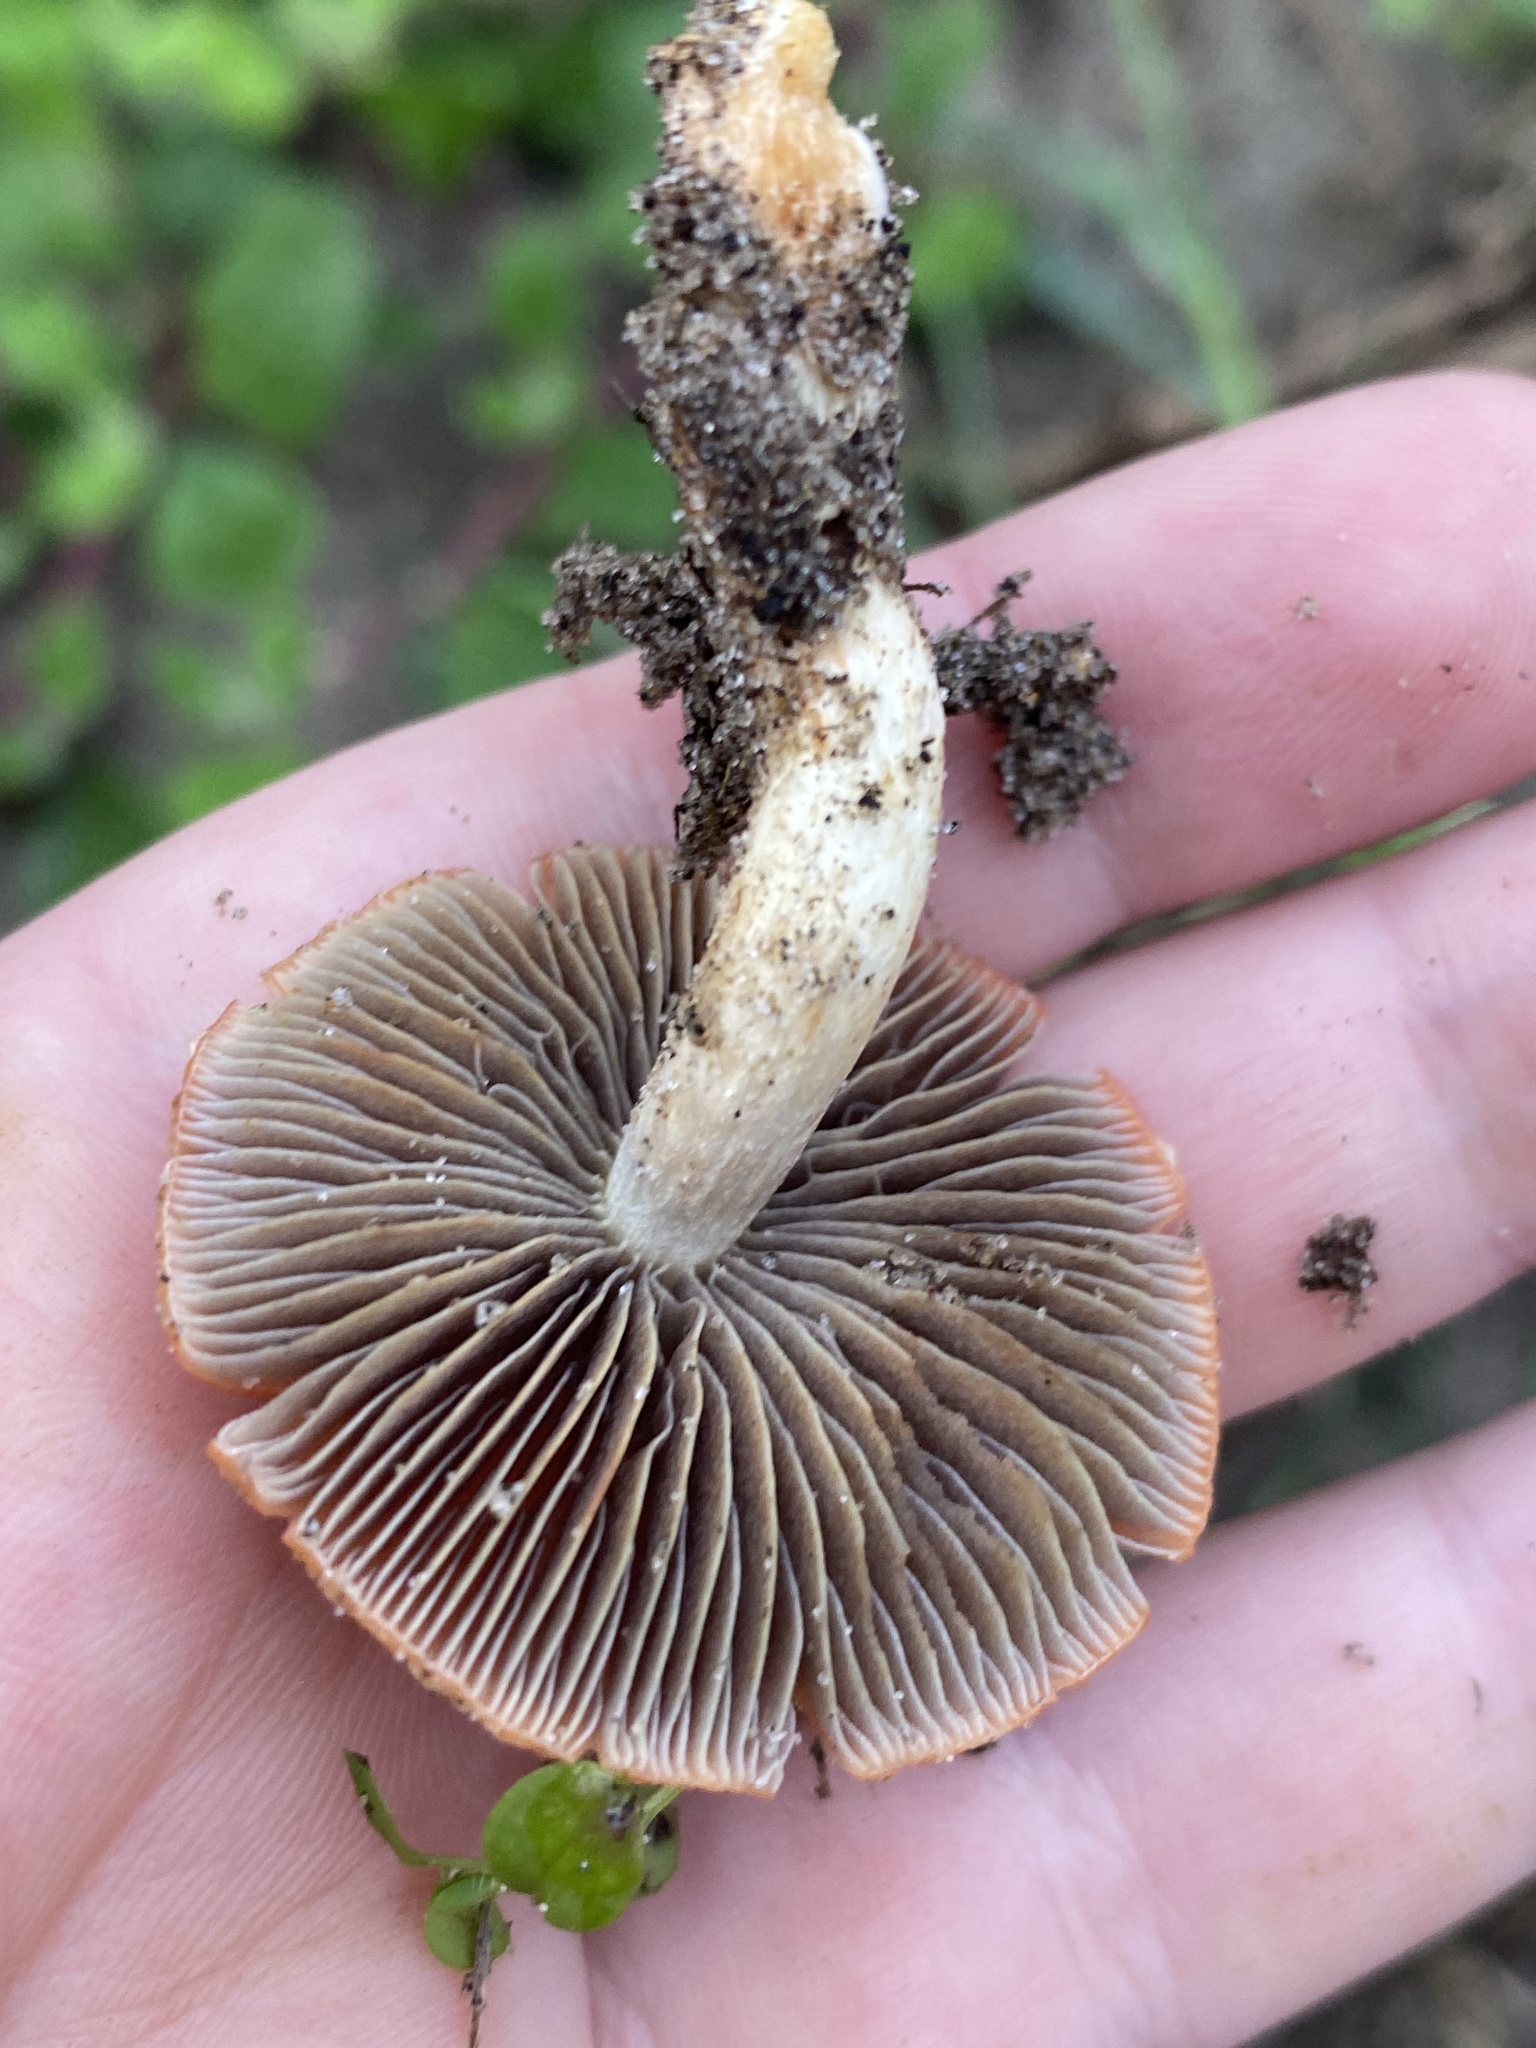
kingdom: Fungi
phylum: Basidiomycota
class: Agaricomycetes
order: Agaricales
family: Strophariaceae
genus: Leratiomyces
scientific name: Leratiomyces ceres
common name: Redlead roundhead
